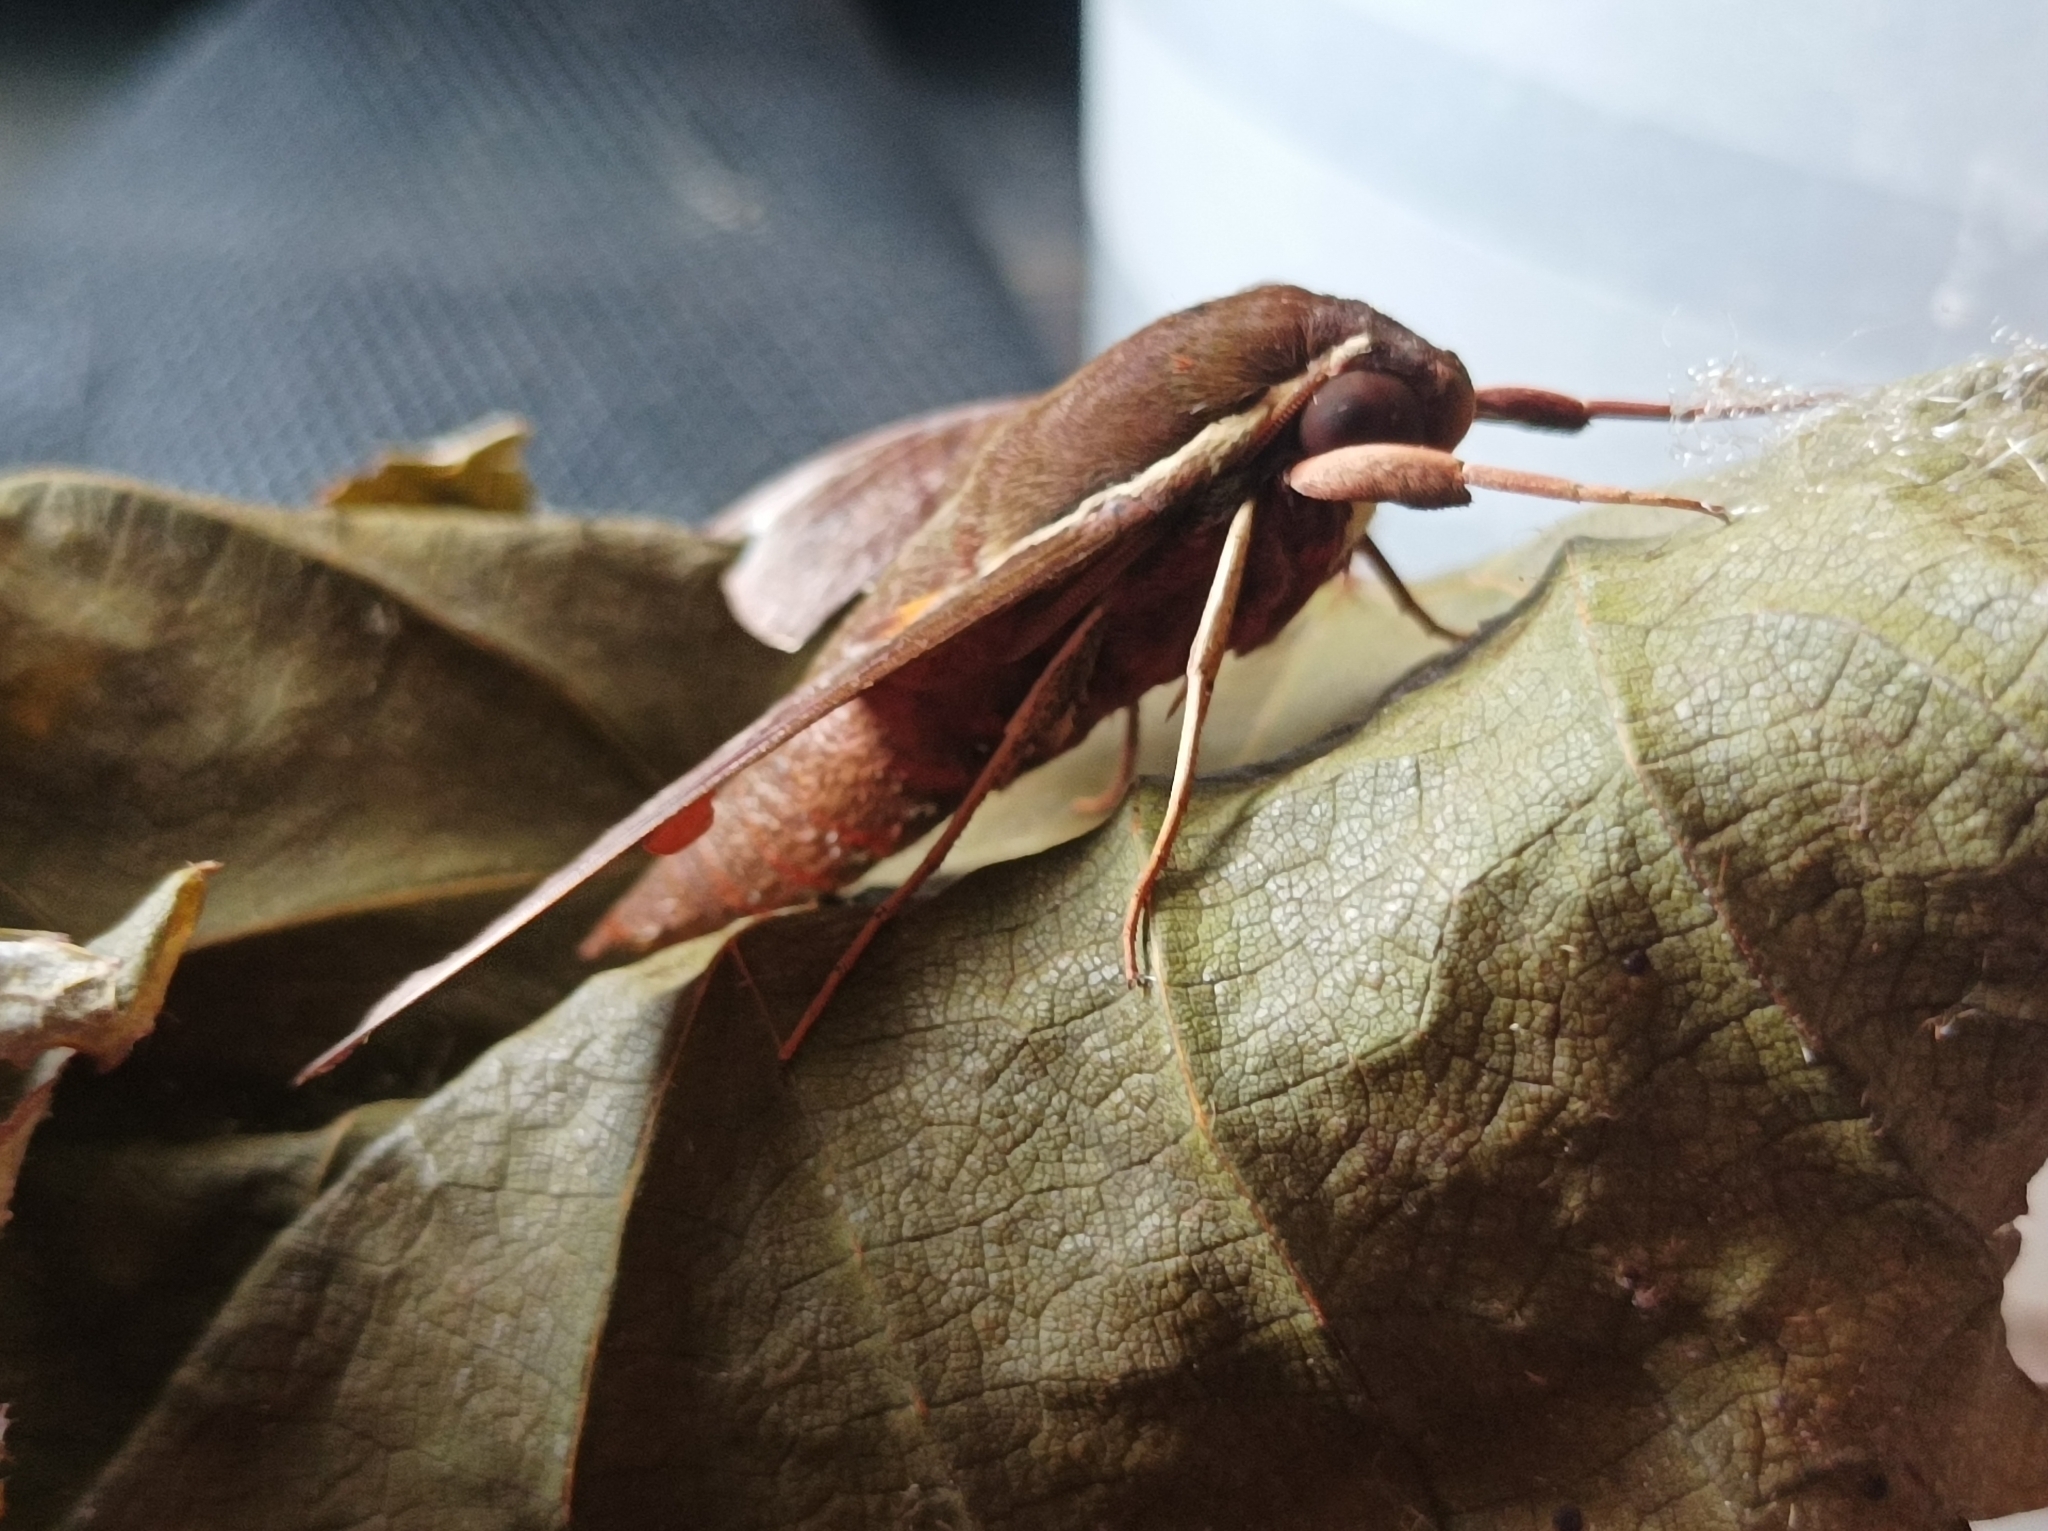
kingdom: Animalia
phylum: Arthropoda
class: Insecta
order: Lepidoptera
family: Sphingidae
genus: Gnathothlibus
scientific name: Gnathothlibus eras
